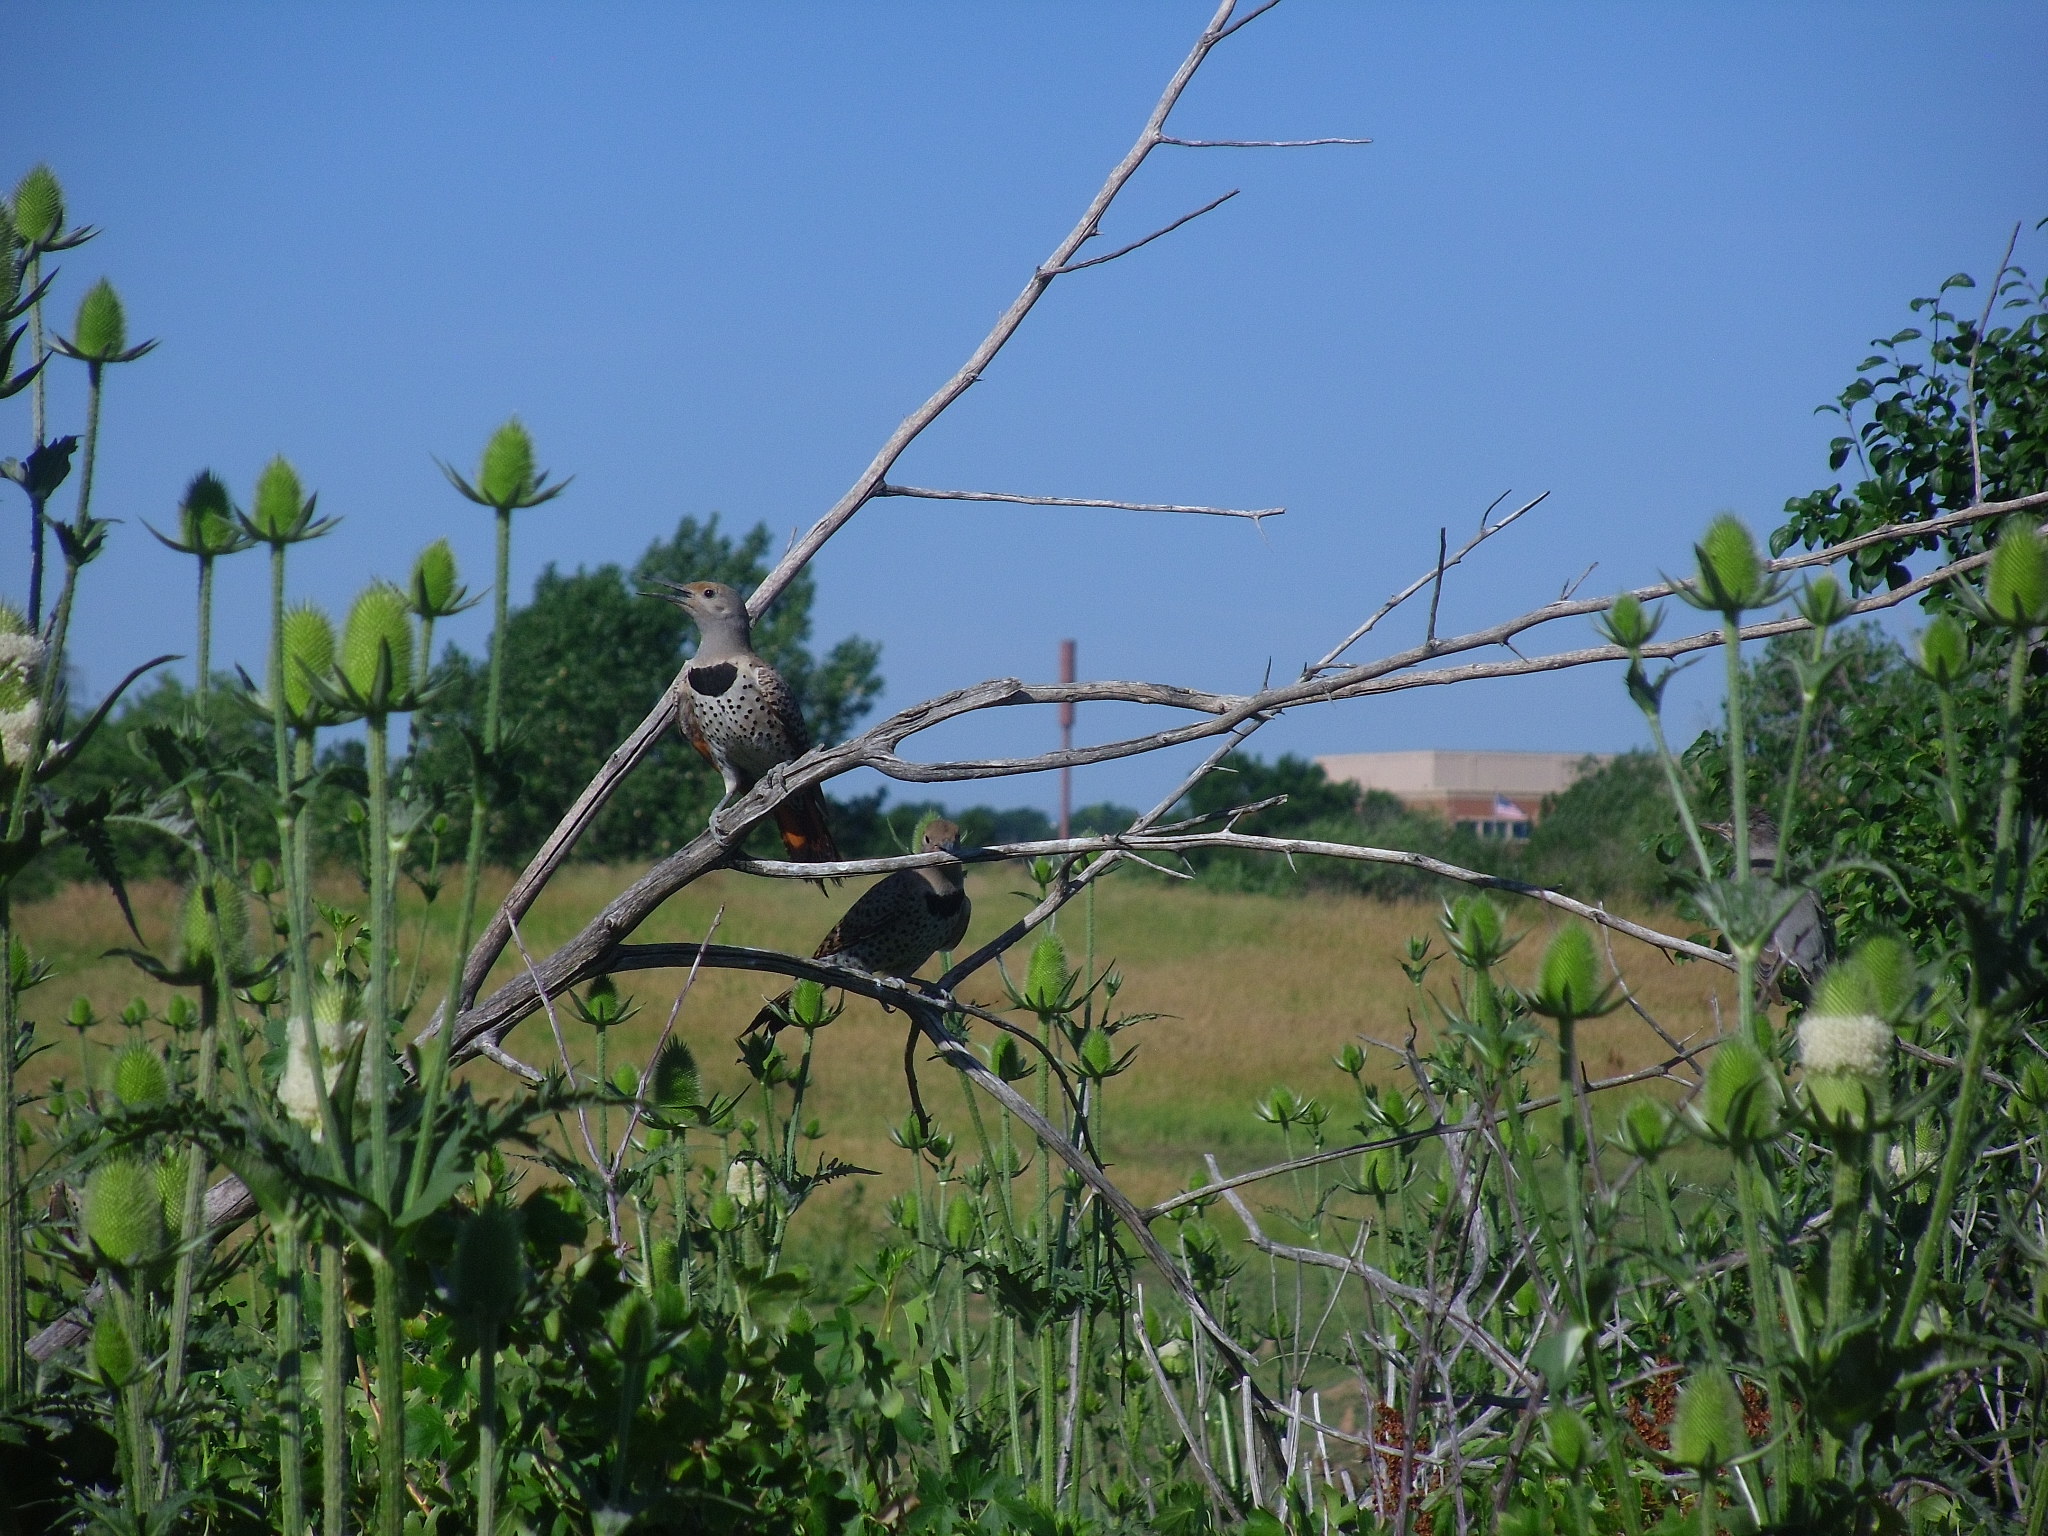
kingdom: Animalia
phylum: Chordata
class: Aves
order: Piciformes
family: Picidae
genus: Colaptes
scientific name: Colaptes auratus
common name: Northern flicker
